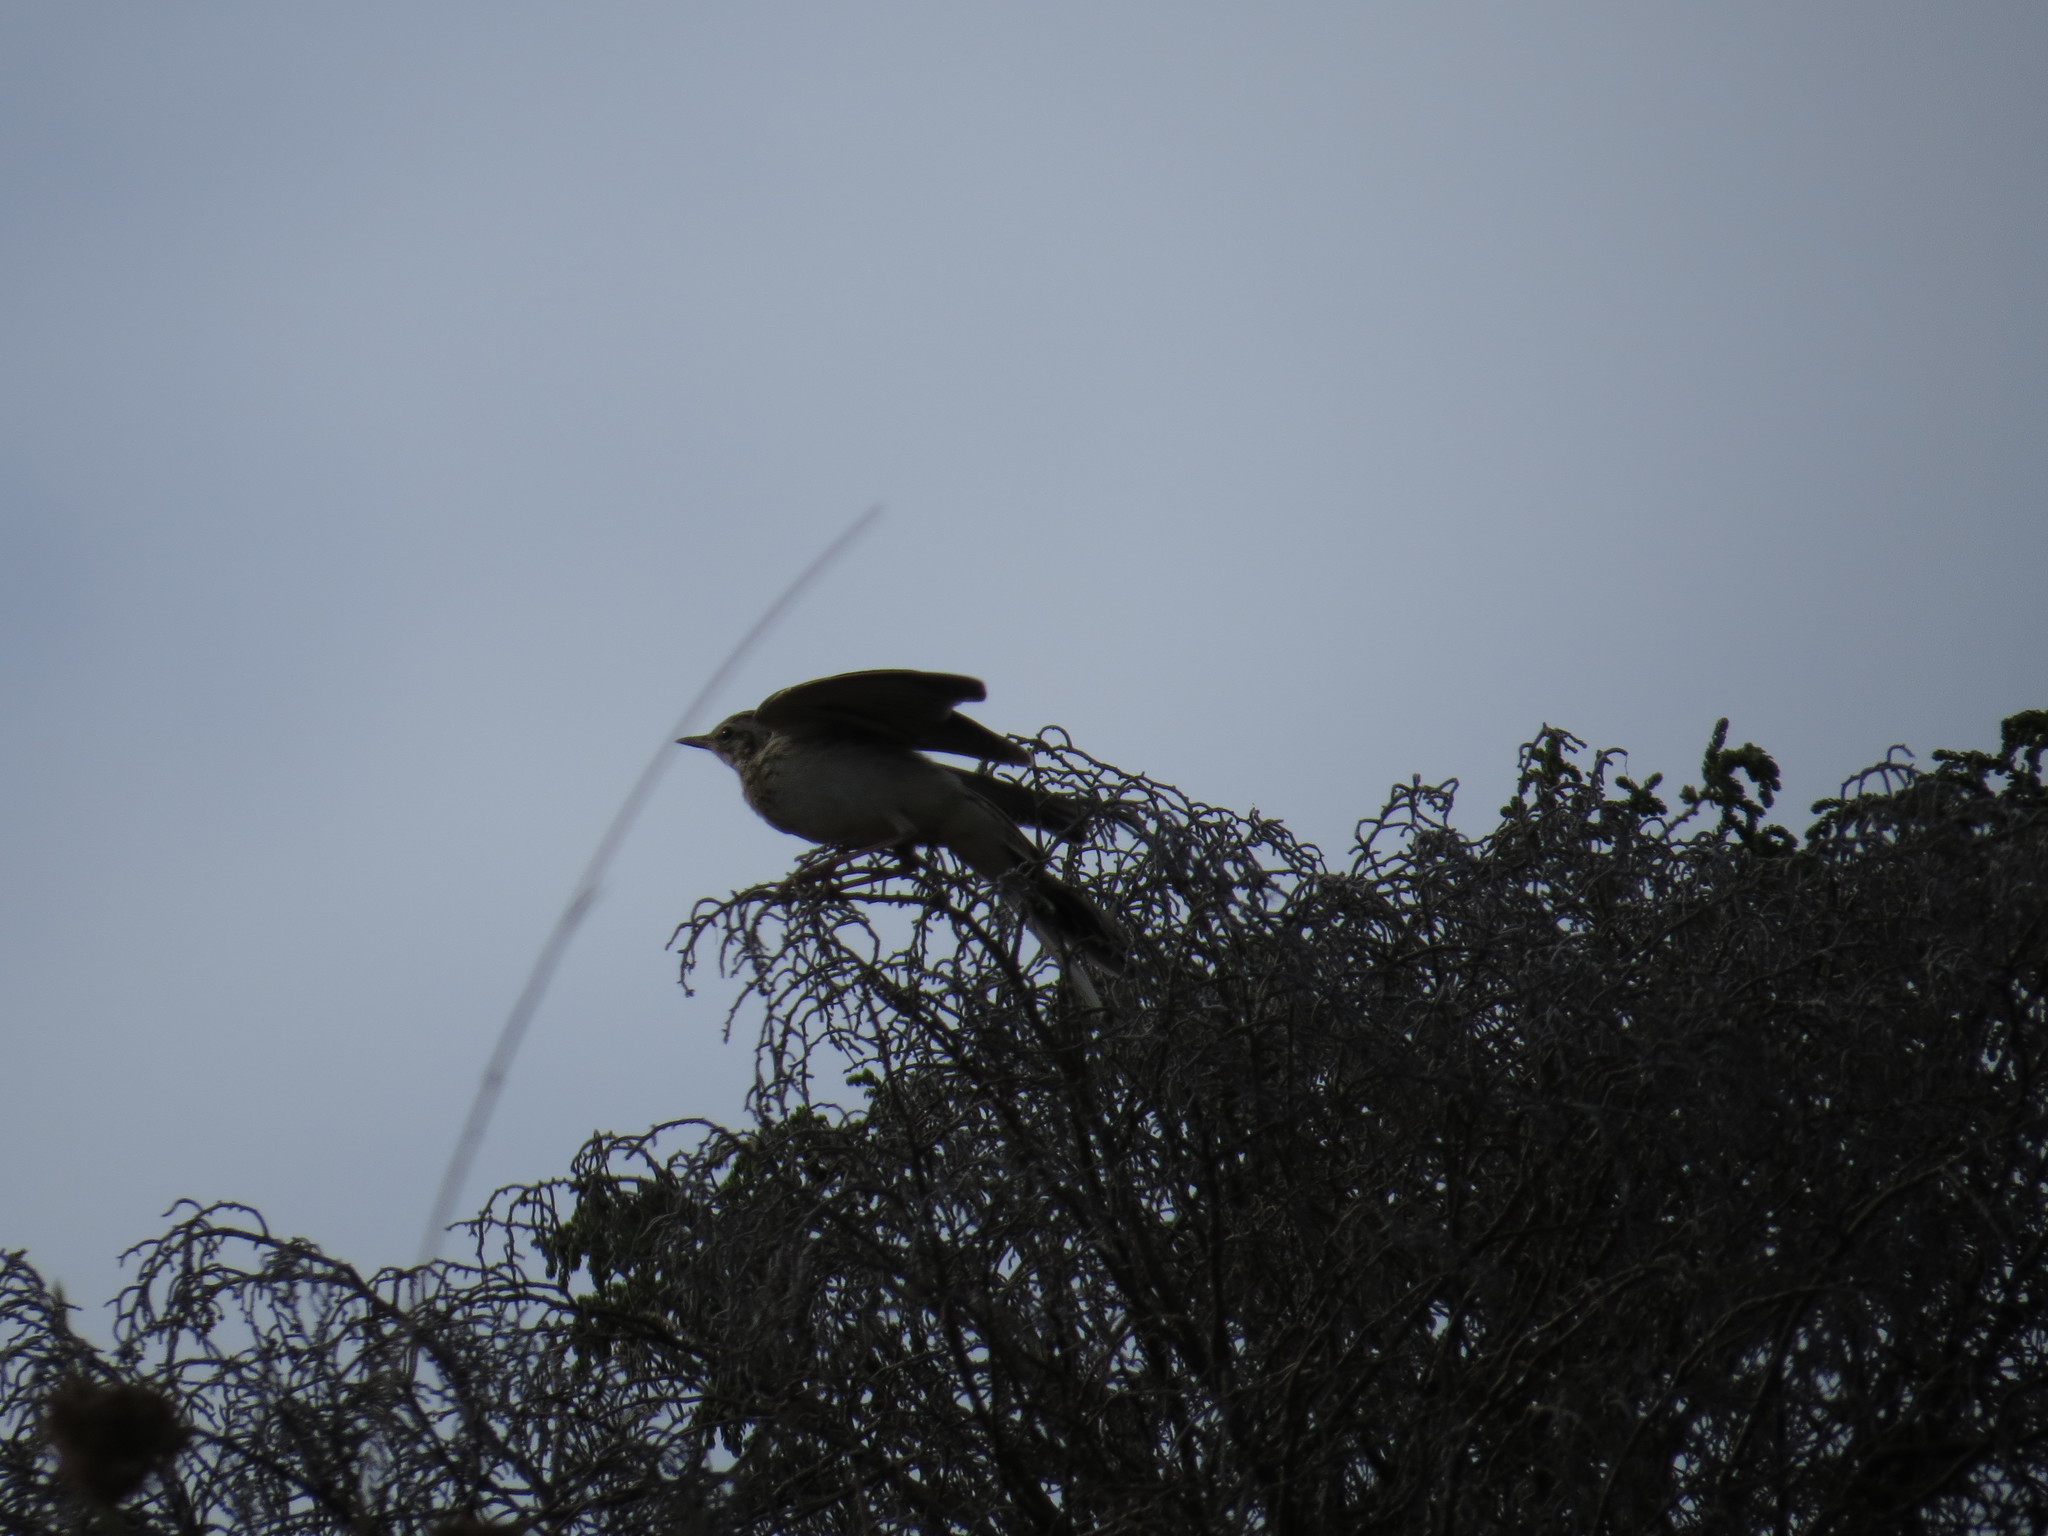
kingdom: Animalia
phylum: Chordata
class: Aves
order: Passeriformes
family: Motacillidae
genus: Anthus
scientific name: Anthus campestris
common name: Tawny pipit
